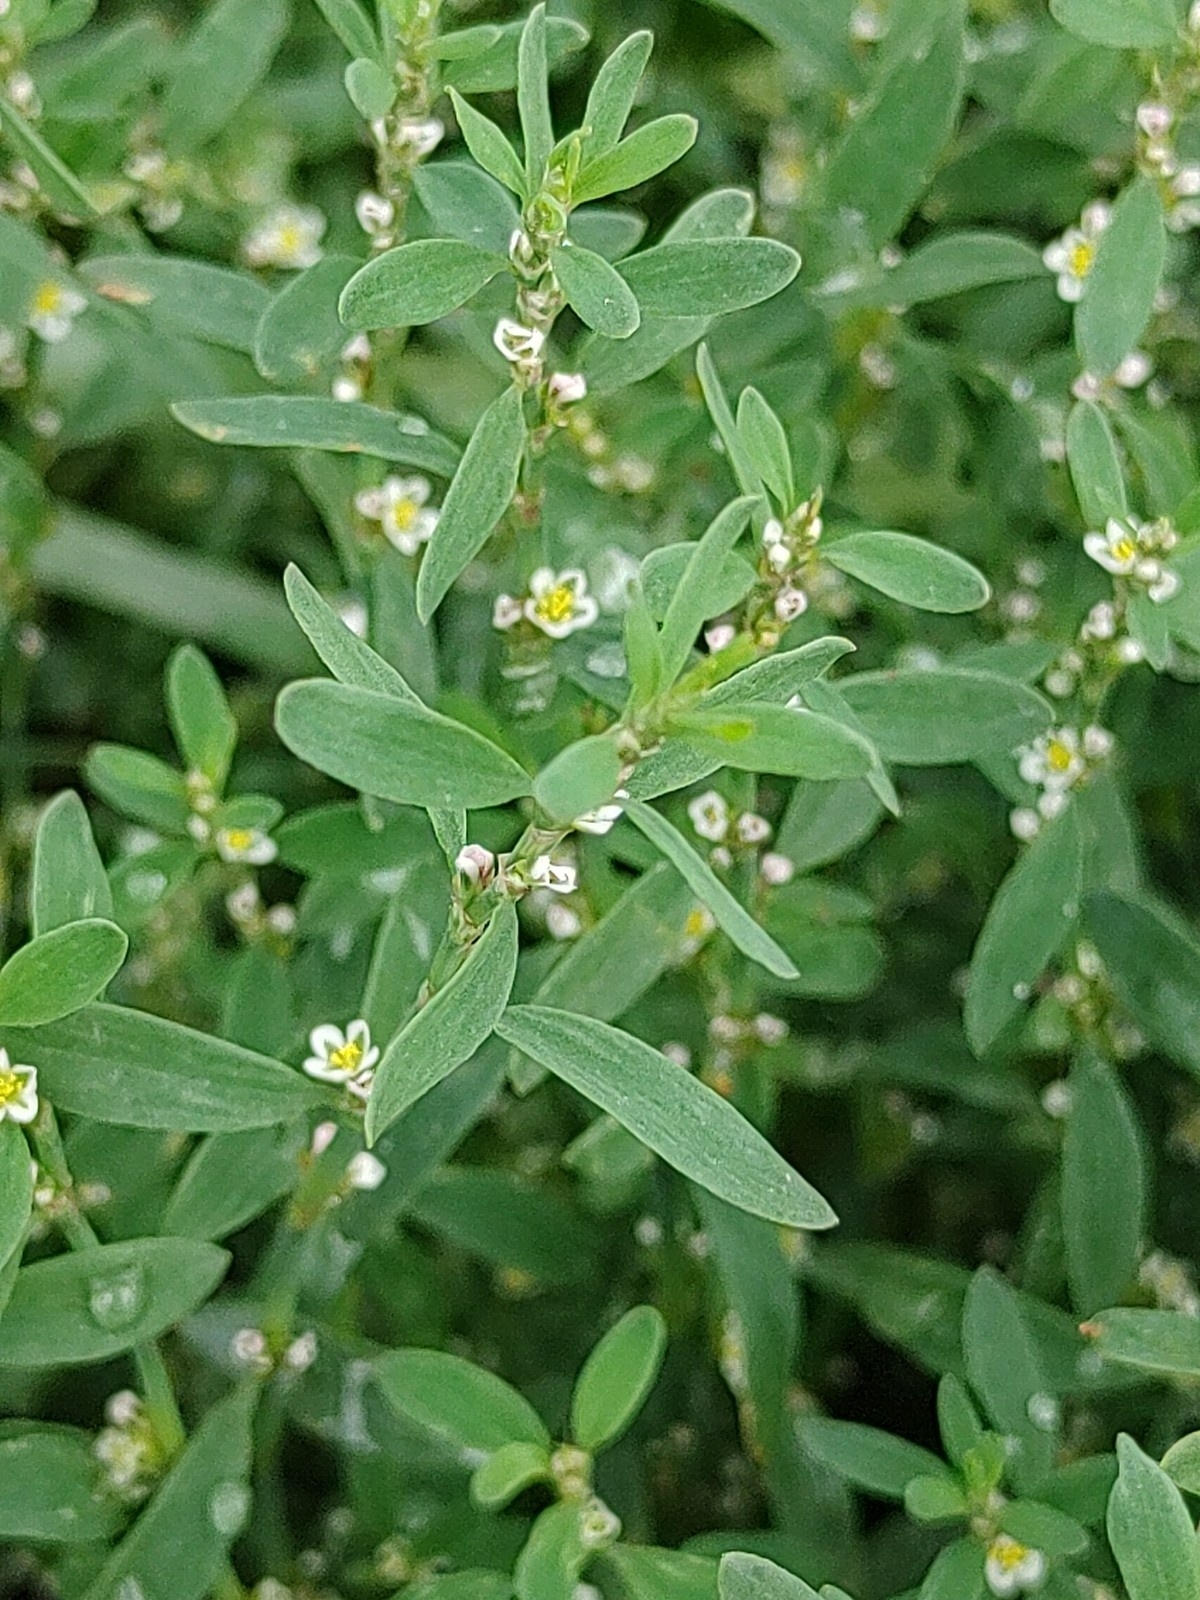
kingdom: Plantae
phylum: Tracheophyta
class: Magnoliopsida
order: Caryophyllales
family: Polygonaceae
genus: Polygonum
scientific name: Polygonum aviculare
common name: Prostrate knotweed
